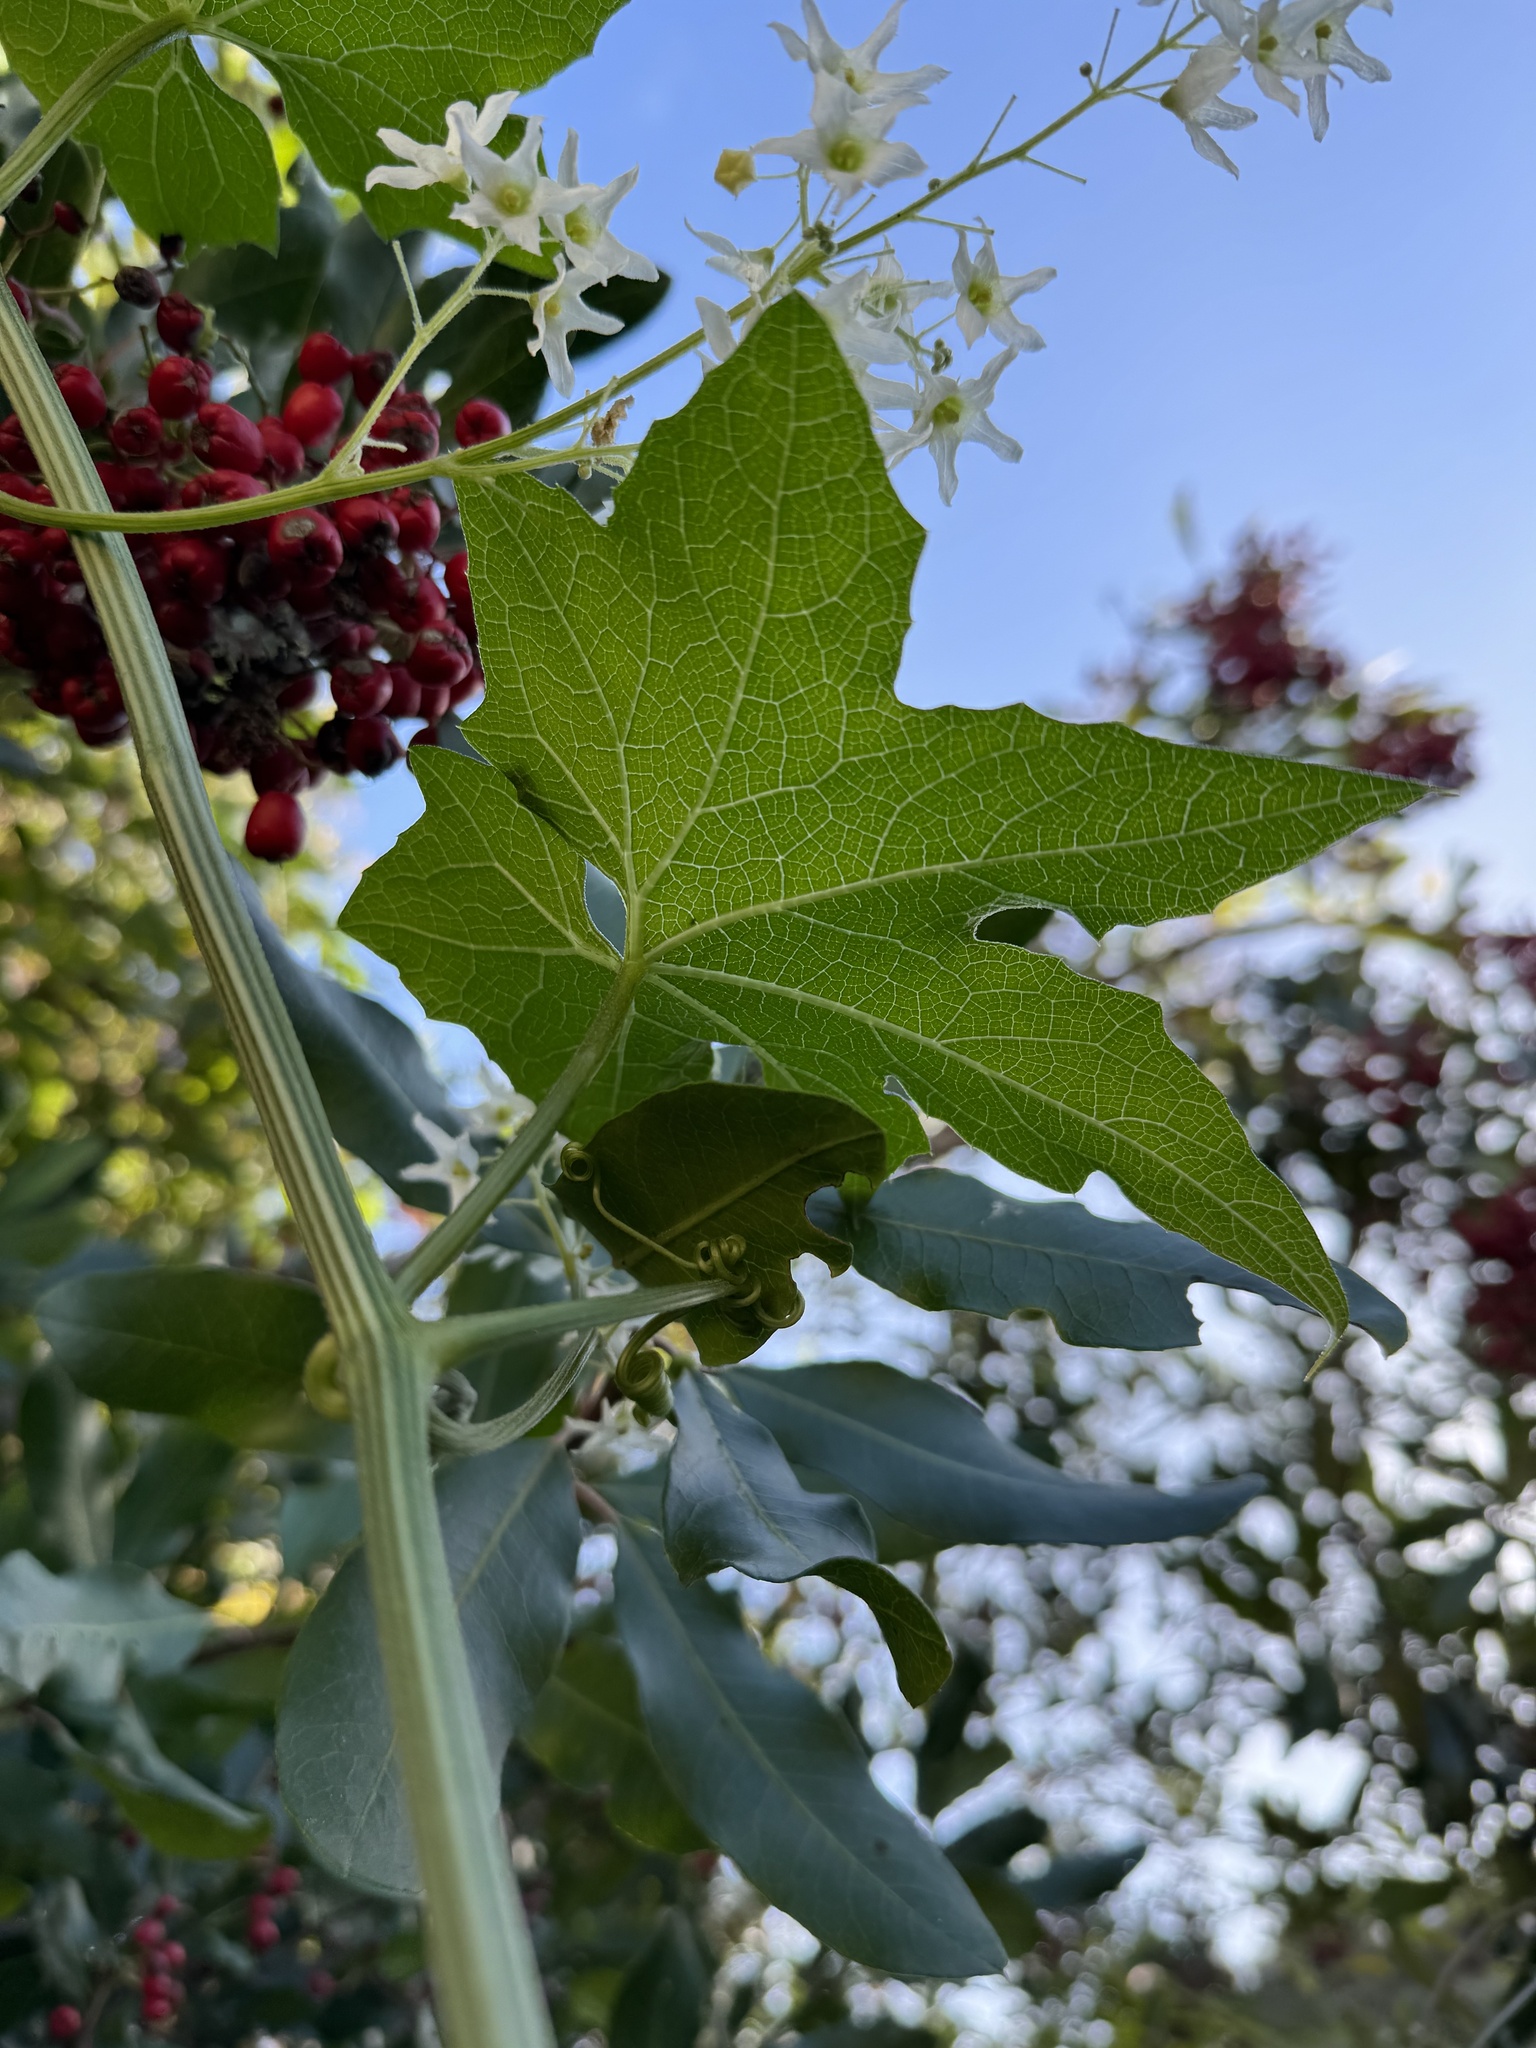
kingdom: Plantae
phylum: Tracheophyta
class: Magnoliopsida
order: Cucurbitales
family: Cucurbitaceae
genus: Marah
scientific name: Marah macrocarpa
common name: Cucamonga manroot
